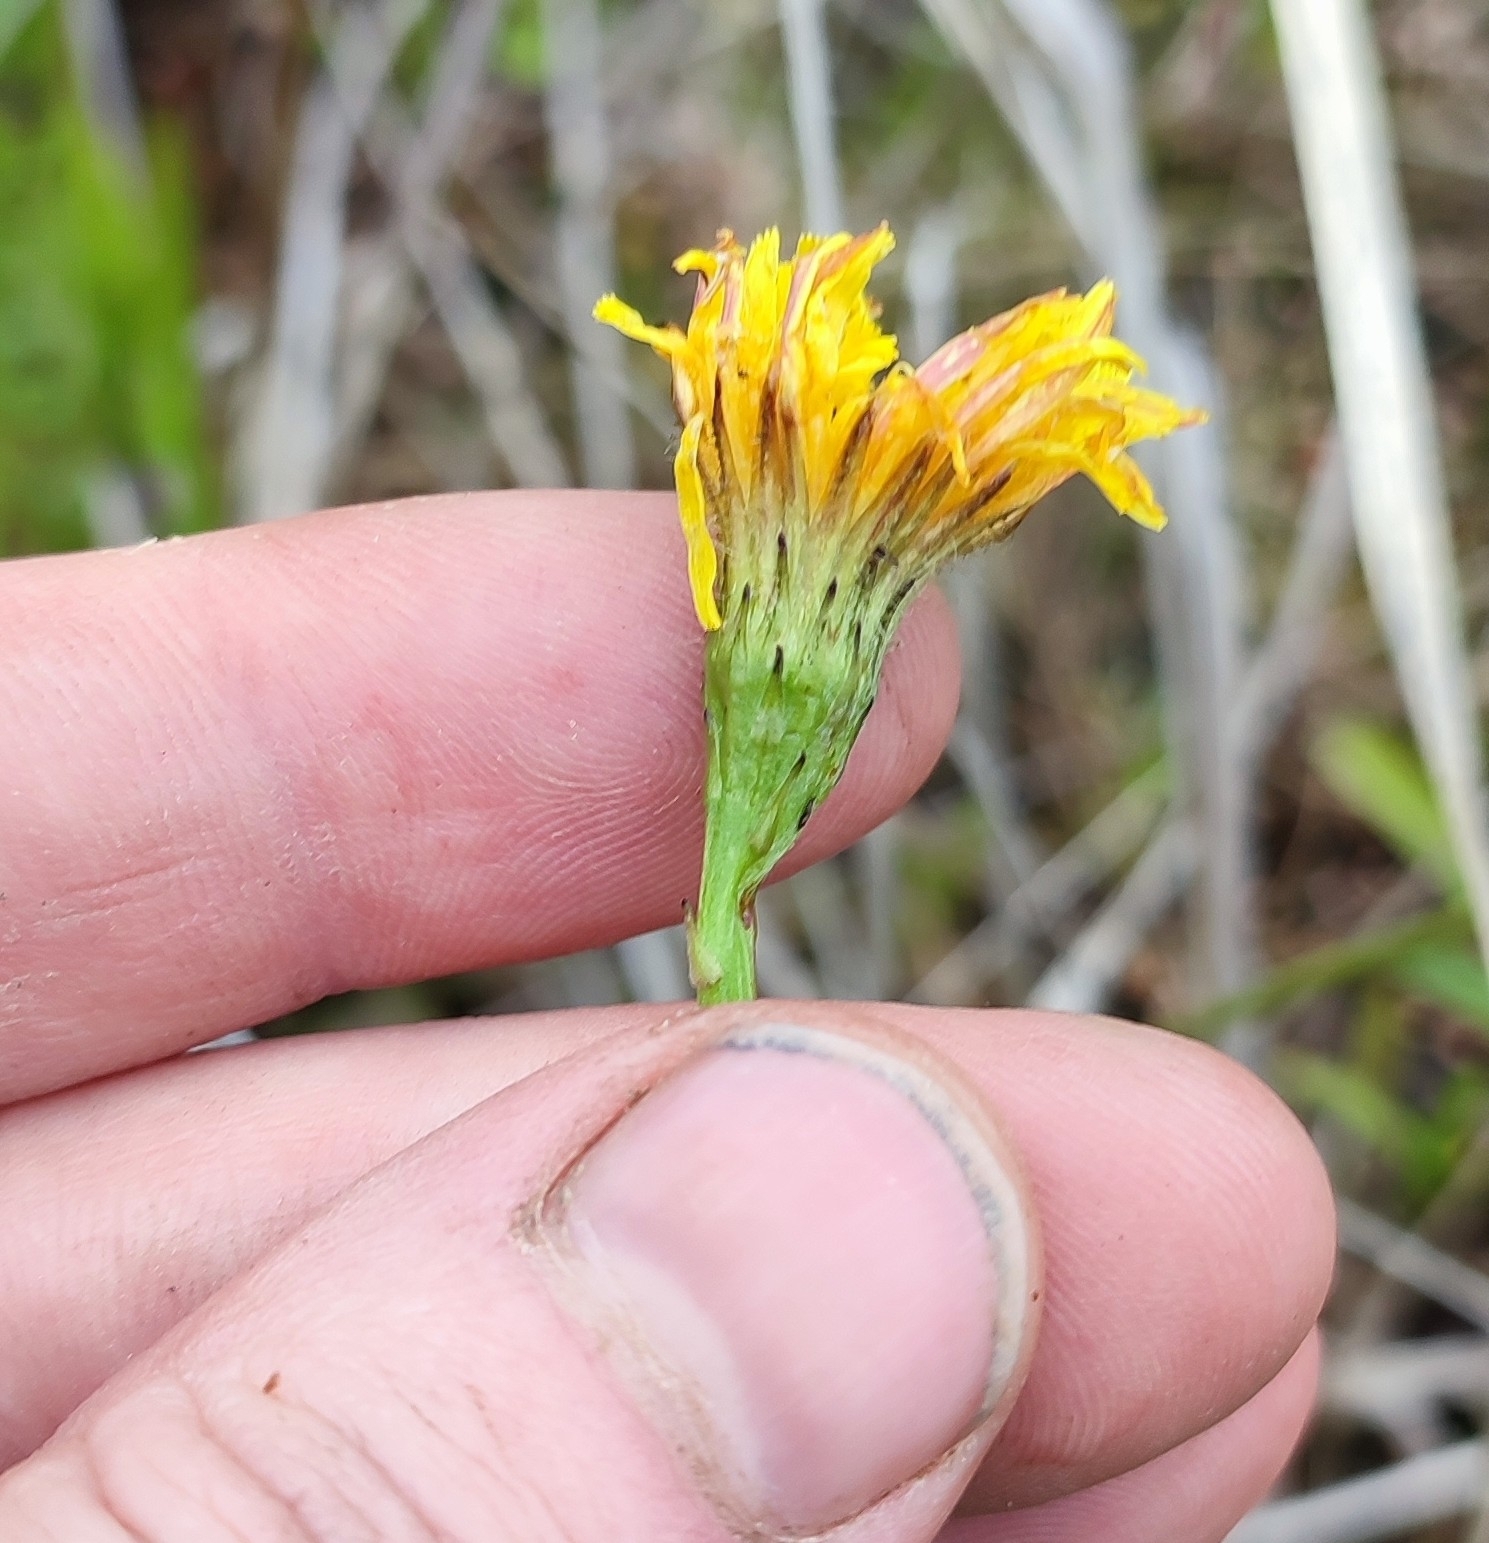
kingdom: Plantae
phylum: Tracheophyta
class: Magnoliopsida
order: Asterales
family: Asteraceae
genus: Scorzoneroides
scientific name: Scorzoneroides autumnalis
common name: Autumn hawkbit
